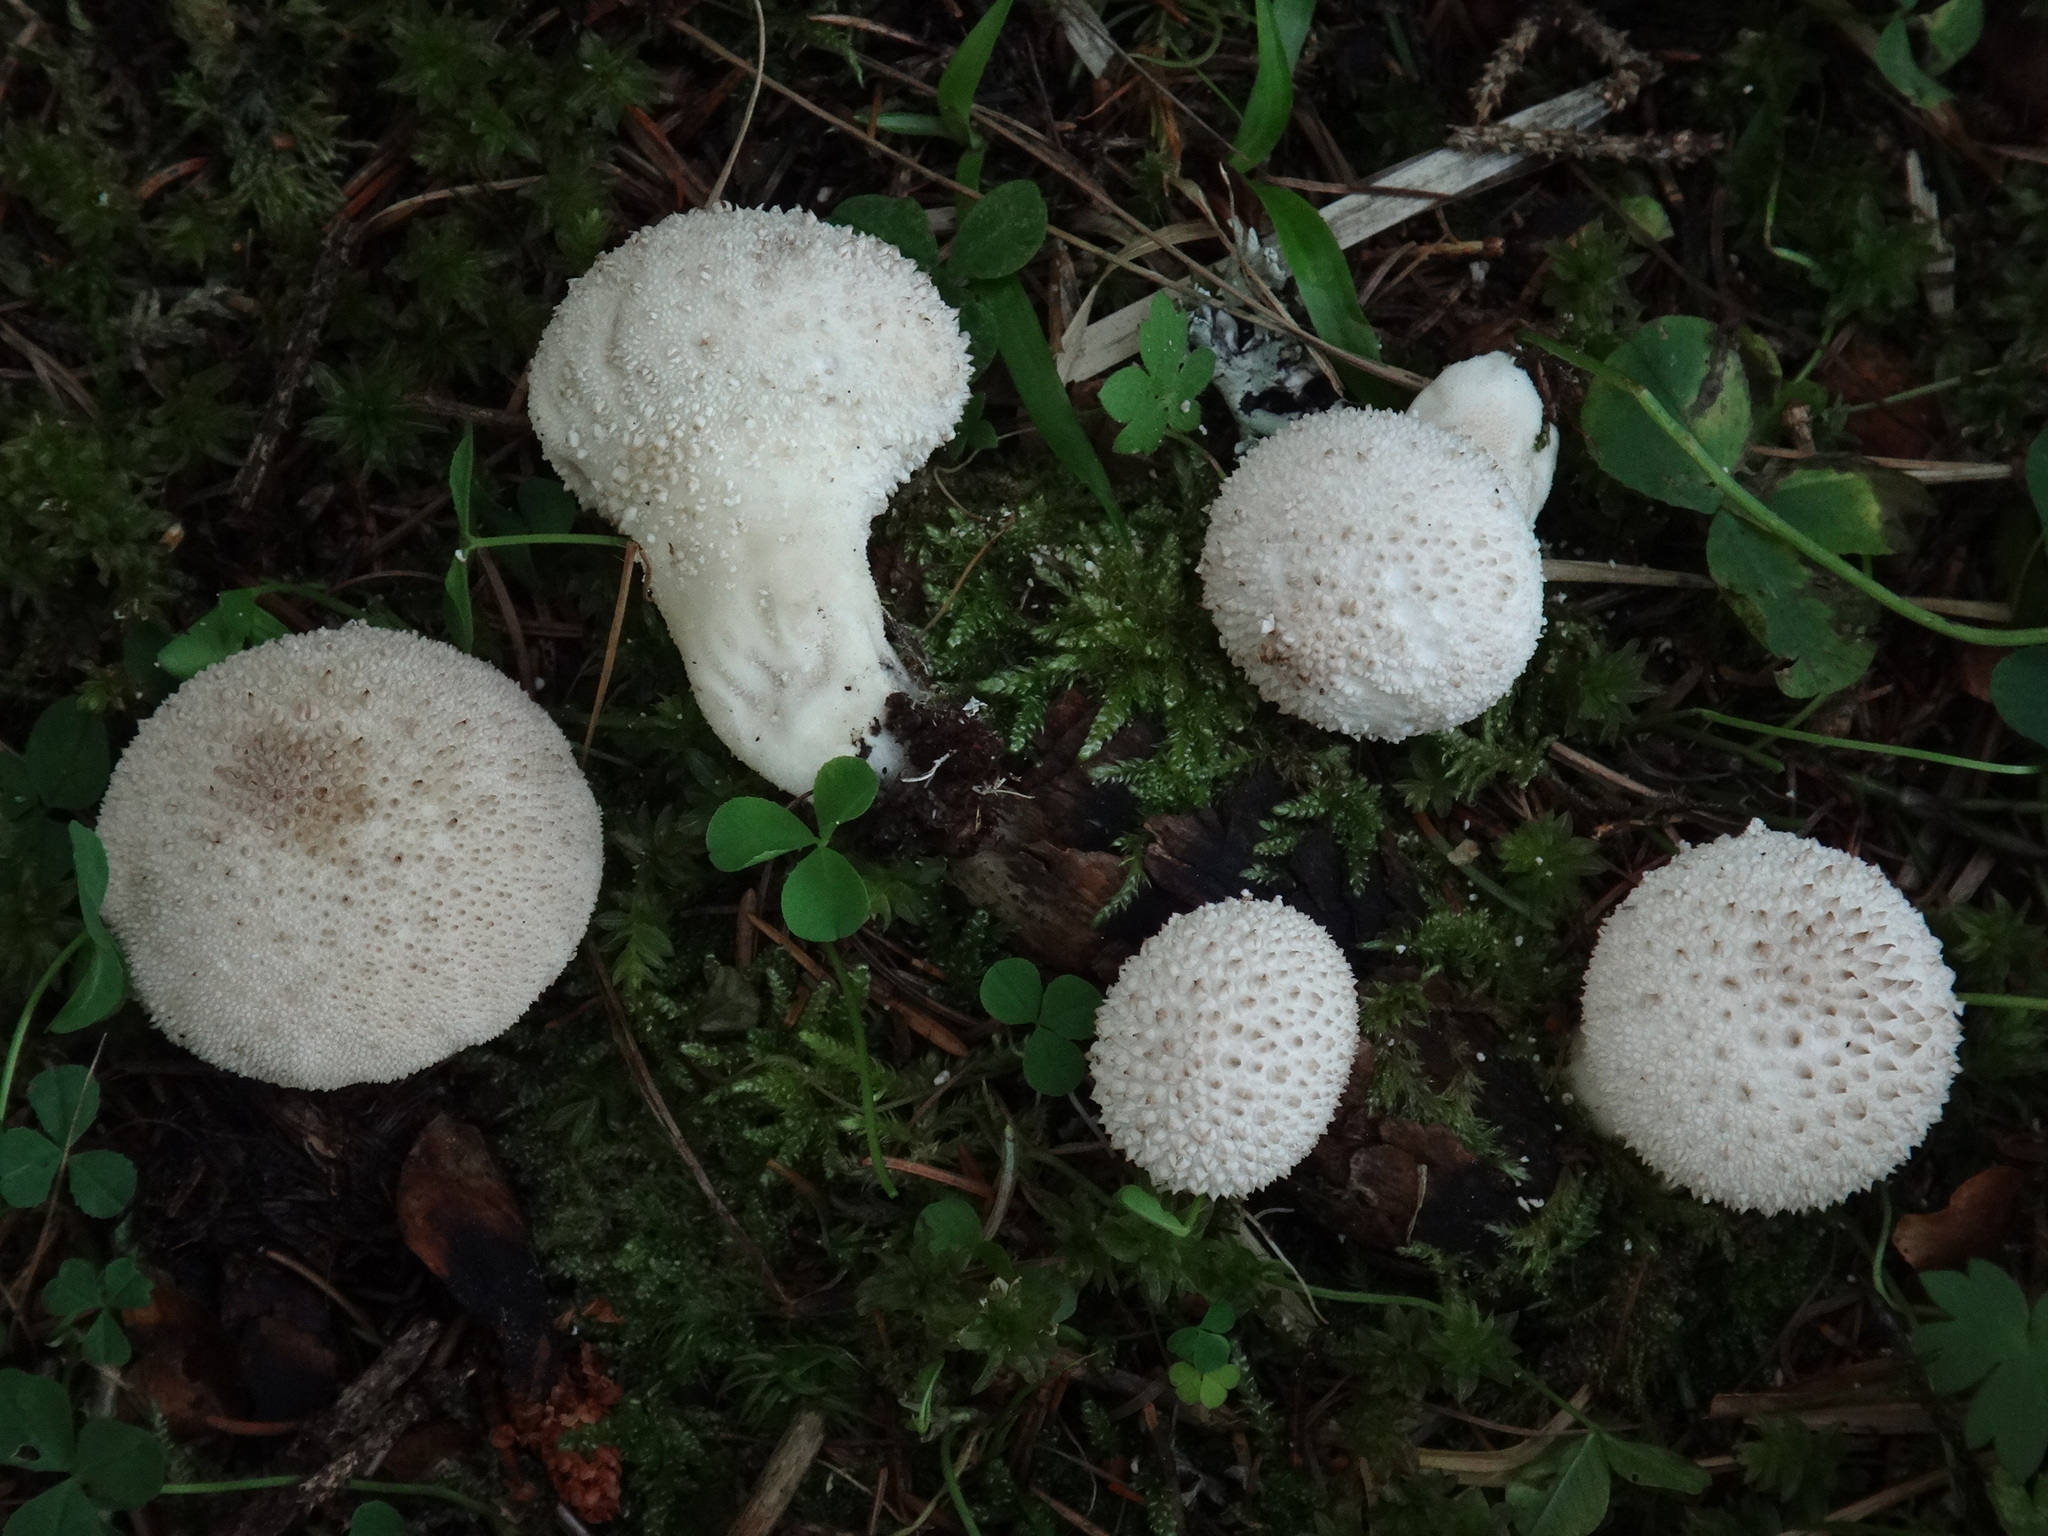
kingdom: Fungi
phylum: Basidiomycota
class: Agaricomycetes
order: Agaricales
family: Lycoperdaceae
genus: Lycoperdon
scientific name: Lycoperdon perlatum
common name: Common puffball
